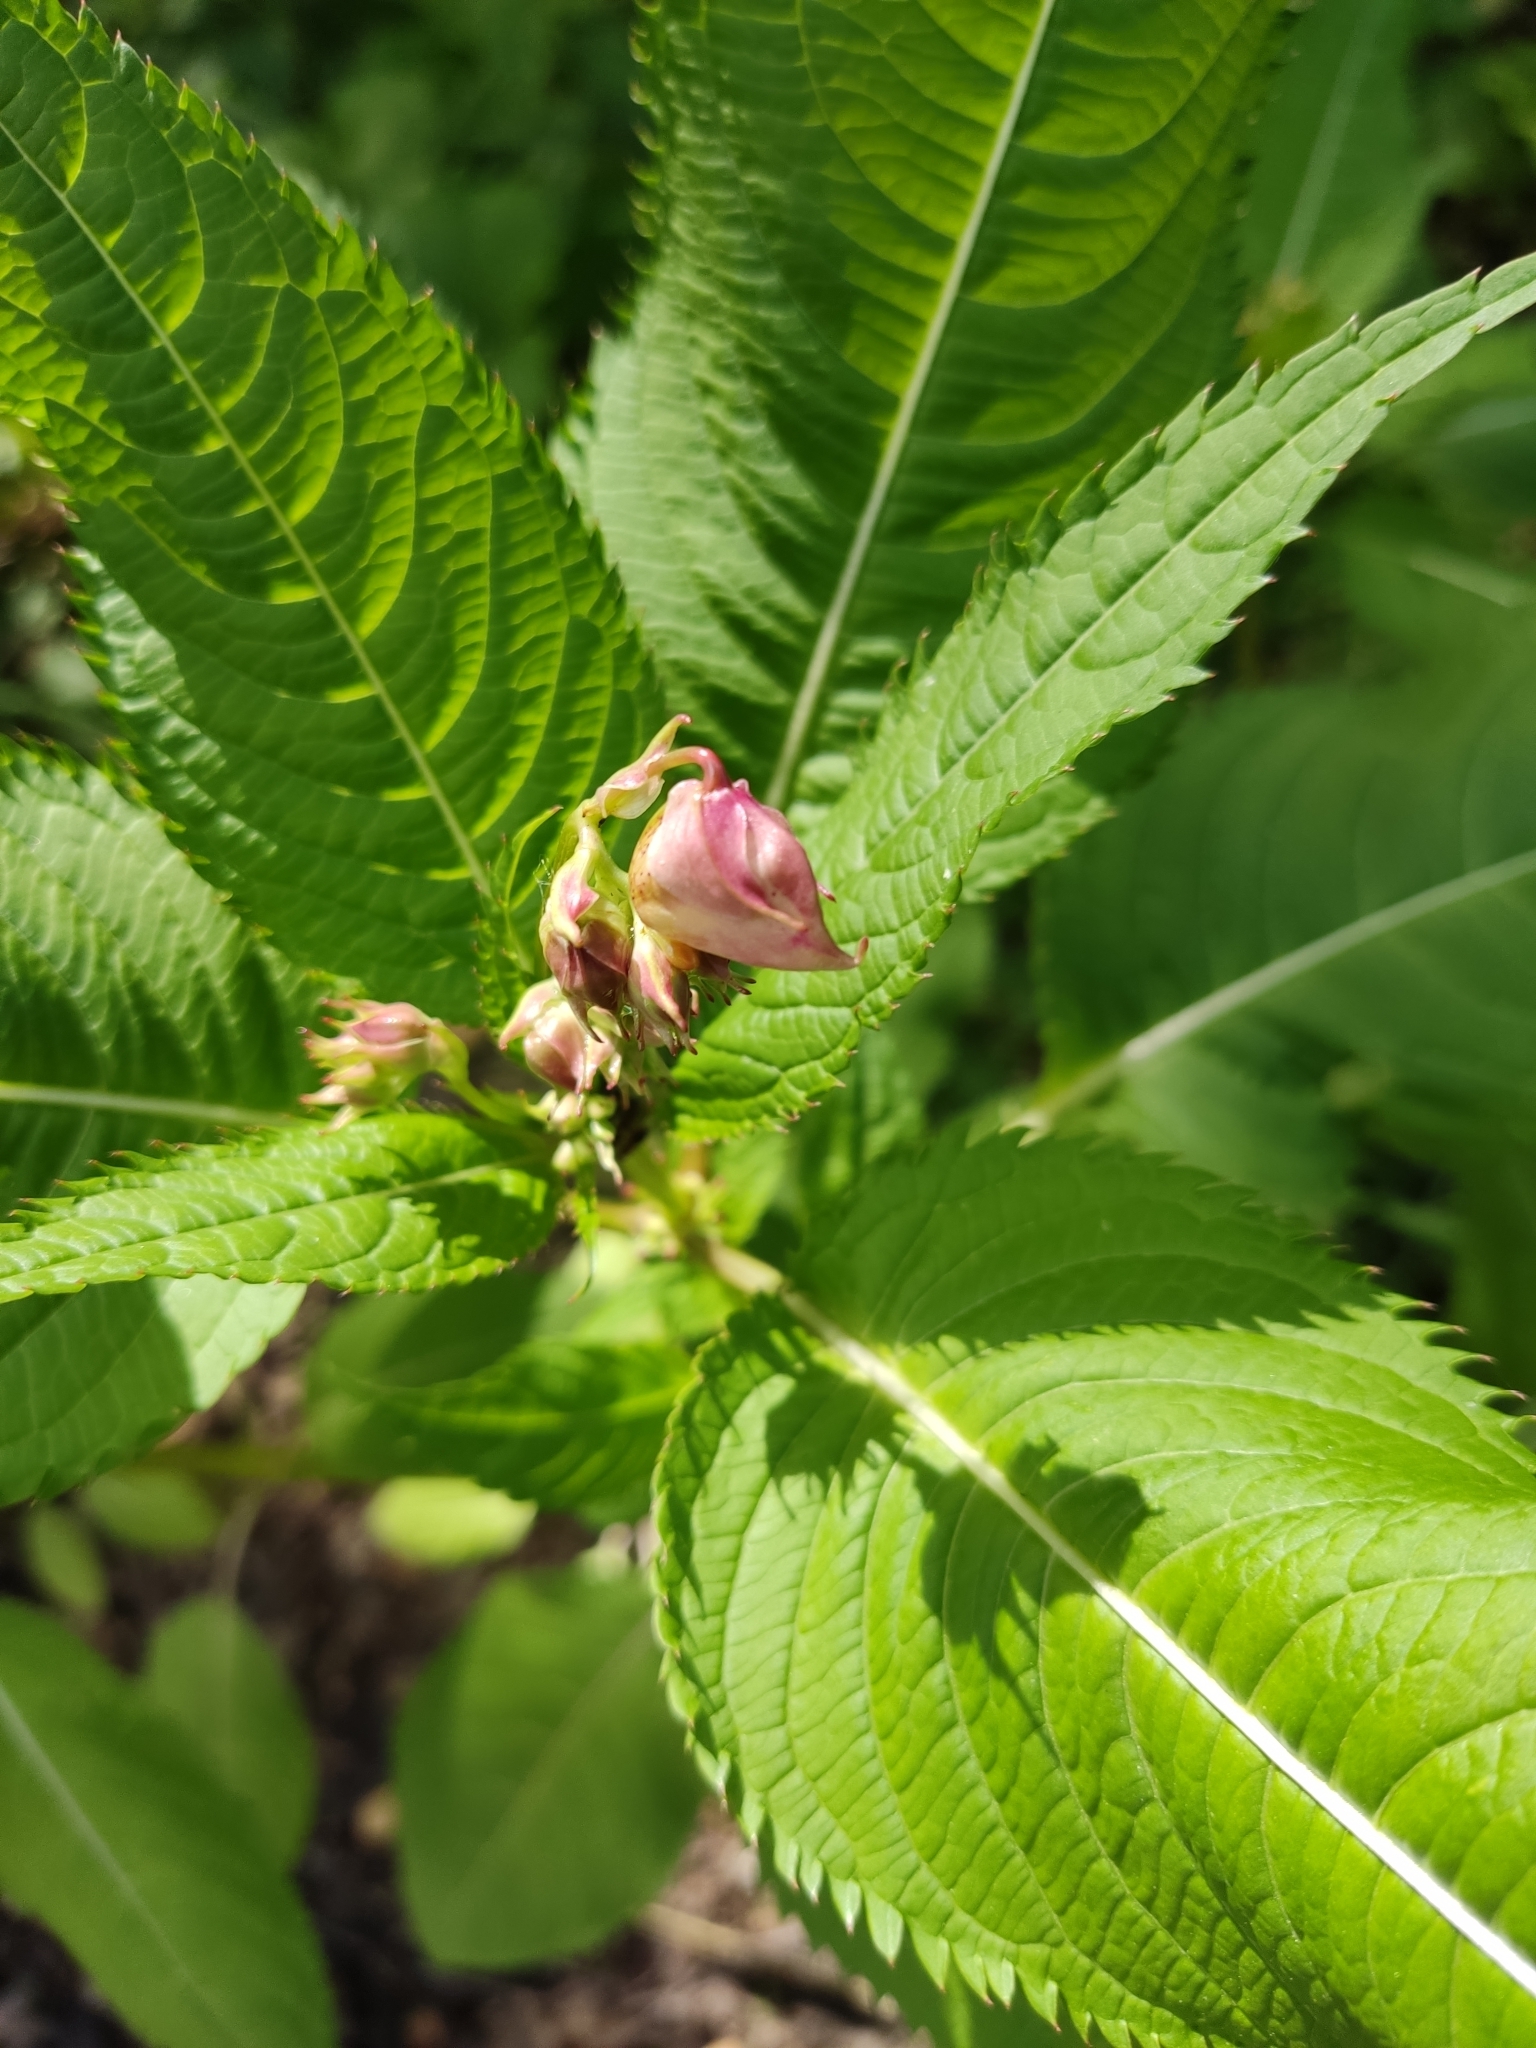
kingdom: Plantae
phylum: Tracheophyta
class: Magnoliopsida
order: Ericales
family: Balsaminaceae
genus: Impatiens
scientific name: Impatiens glandulifera
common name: Himalayan balsam
